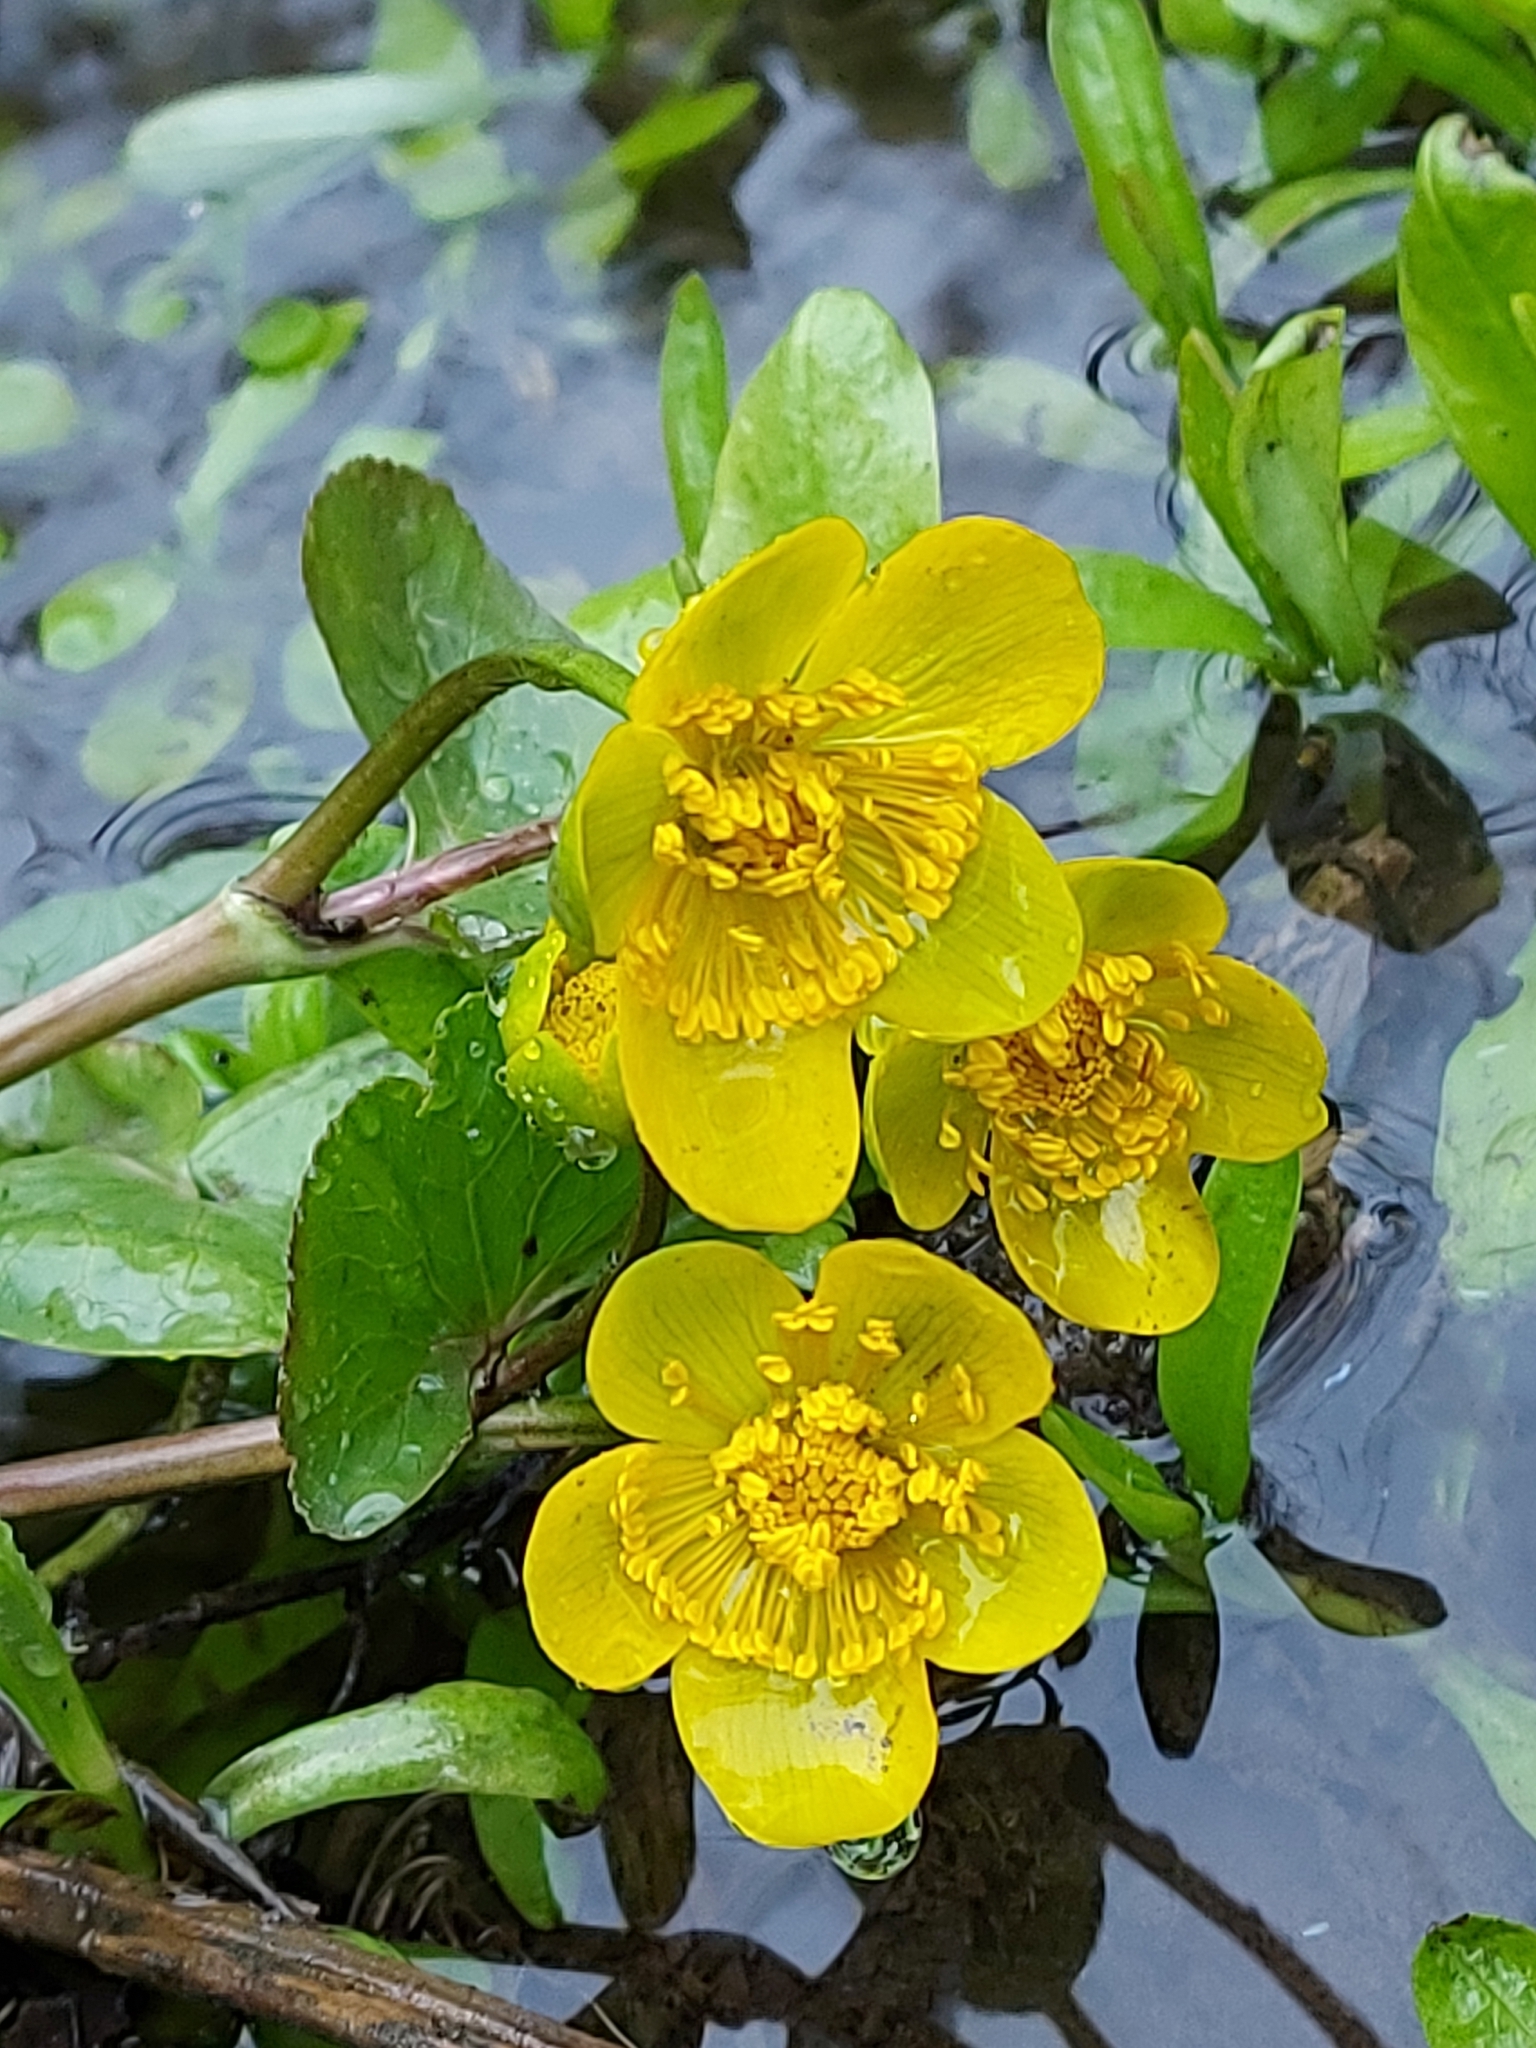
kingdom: Plantae
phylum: Tracheophyta
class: Magnoliopsida
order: Ranunculales
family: Ranunculaceae
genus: Caltha
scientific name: Caltha palustris
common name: Marsh marigold
